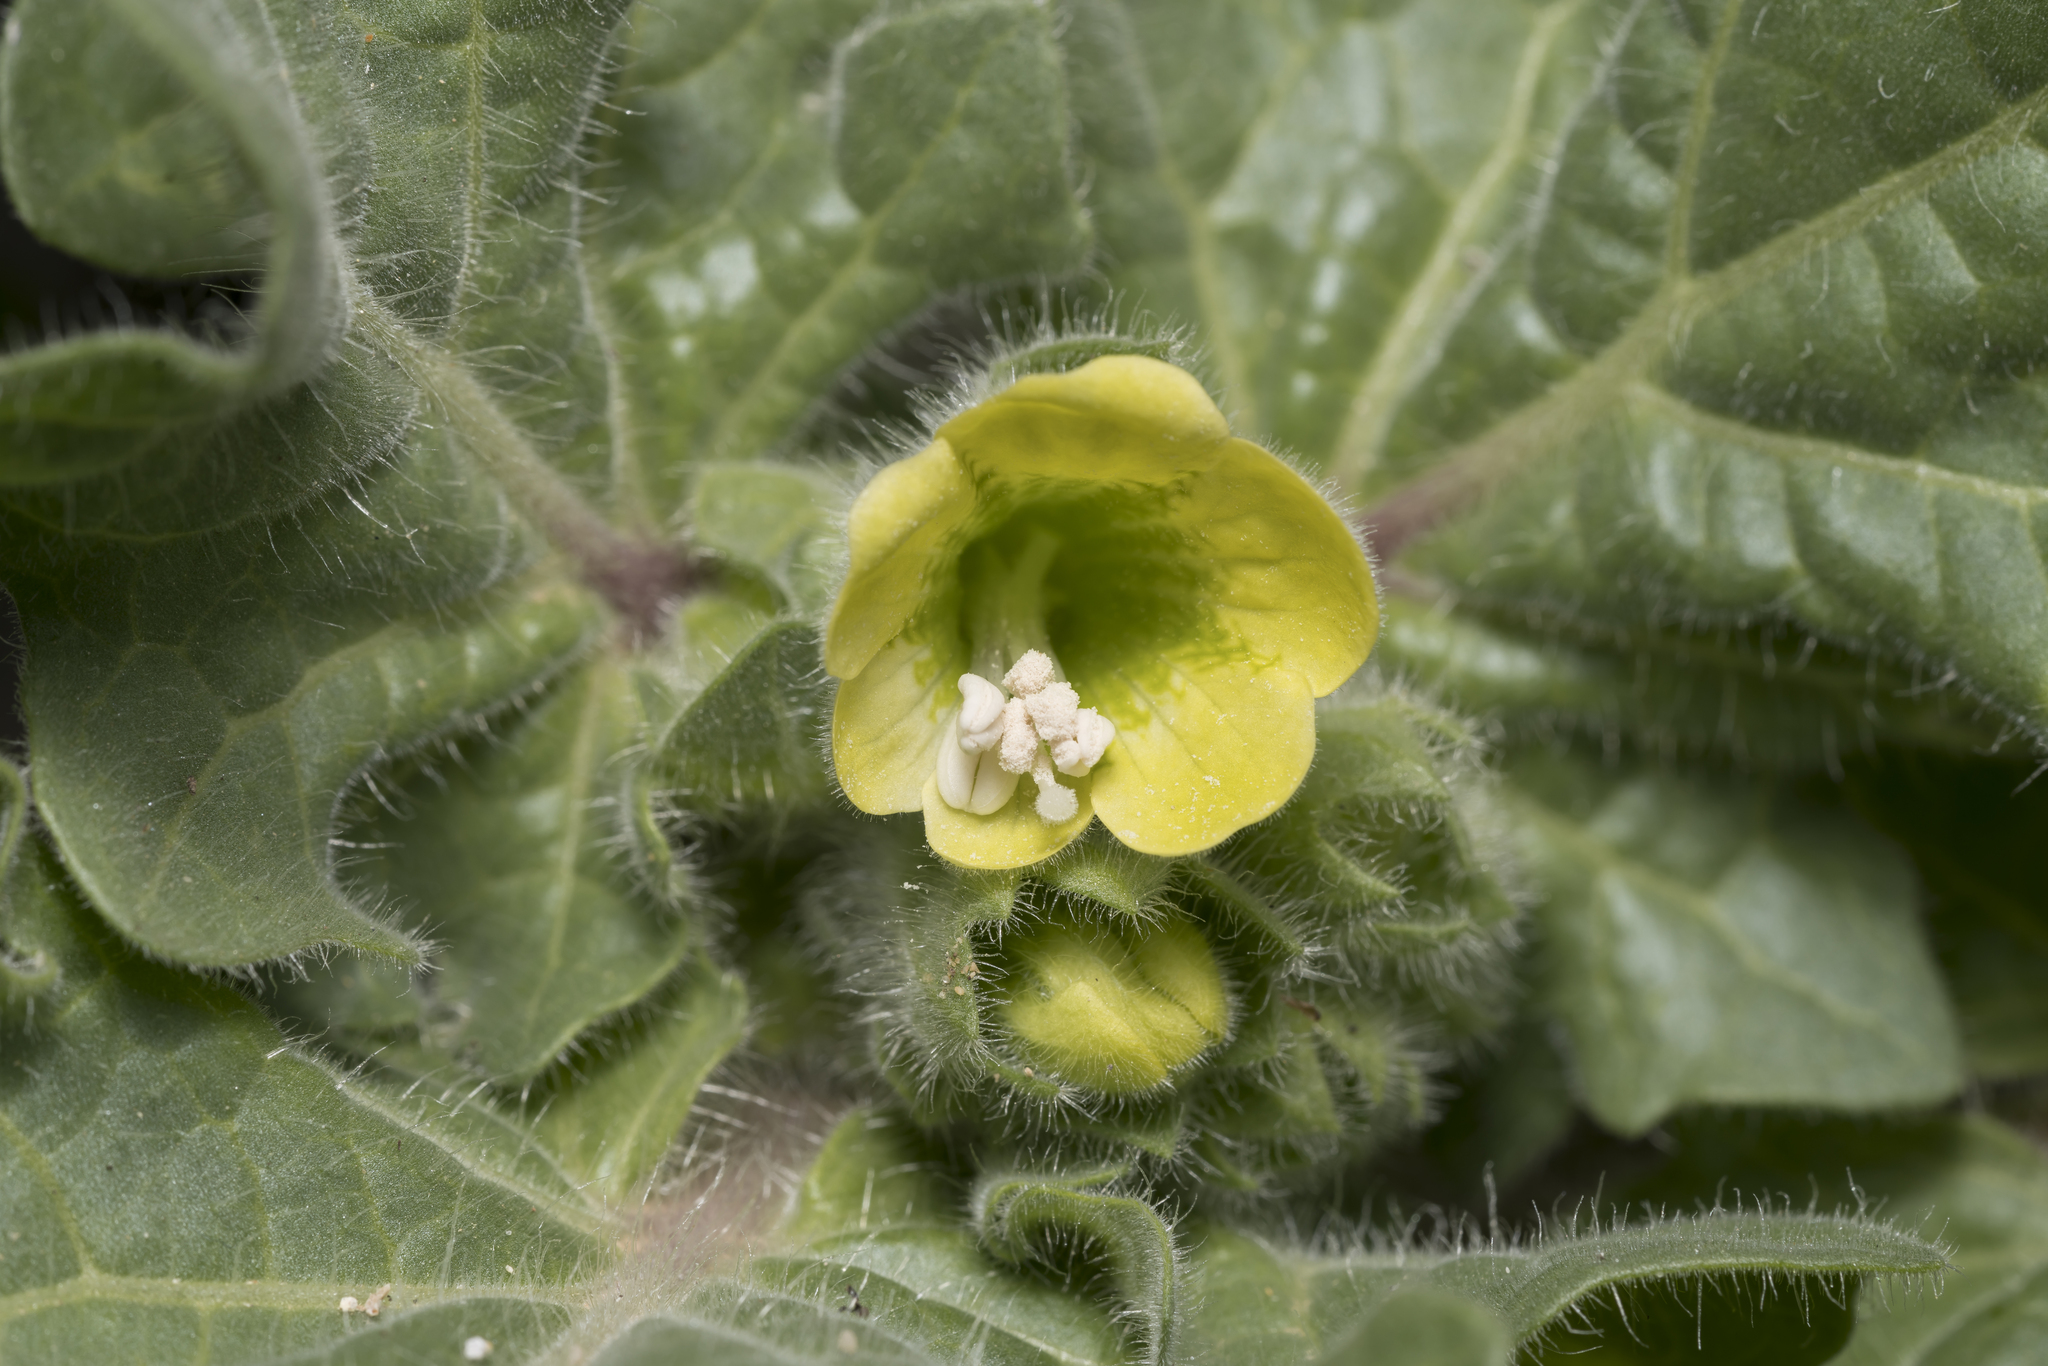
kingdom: Plantae
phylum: Tracheophyta
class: Magnoliopsida
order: Solanales
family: Solanaceae
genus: Hyoscyamus
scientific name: Hyoscyamus albus
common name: White henbane
